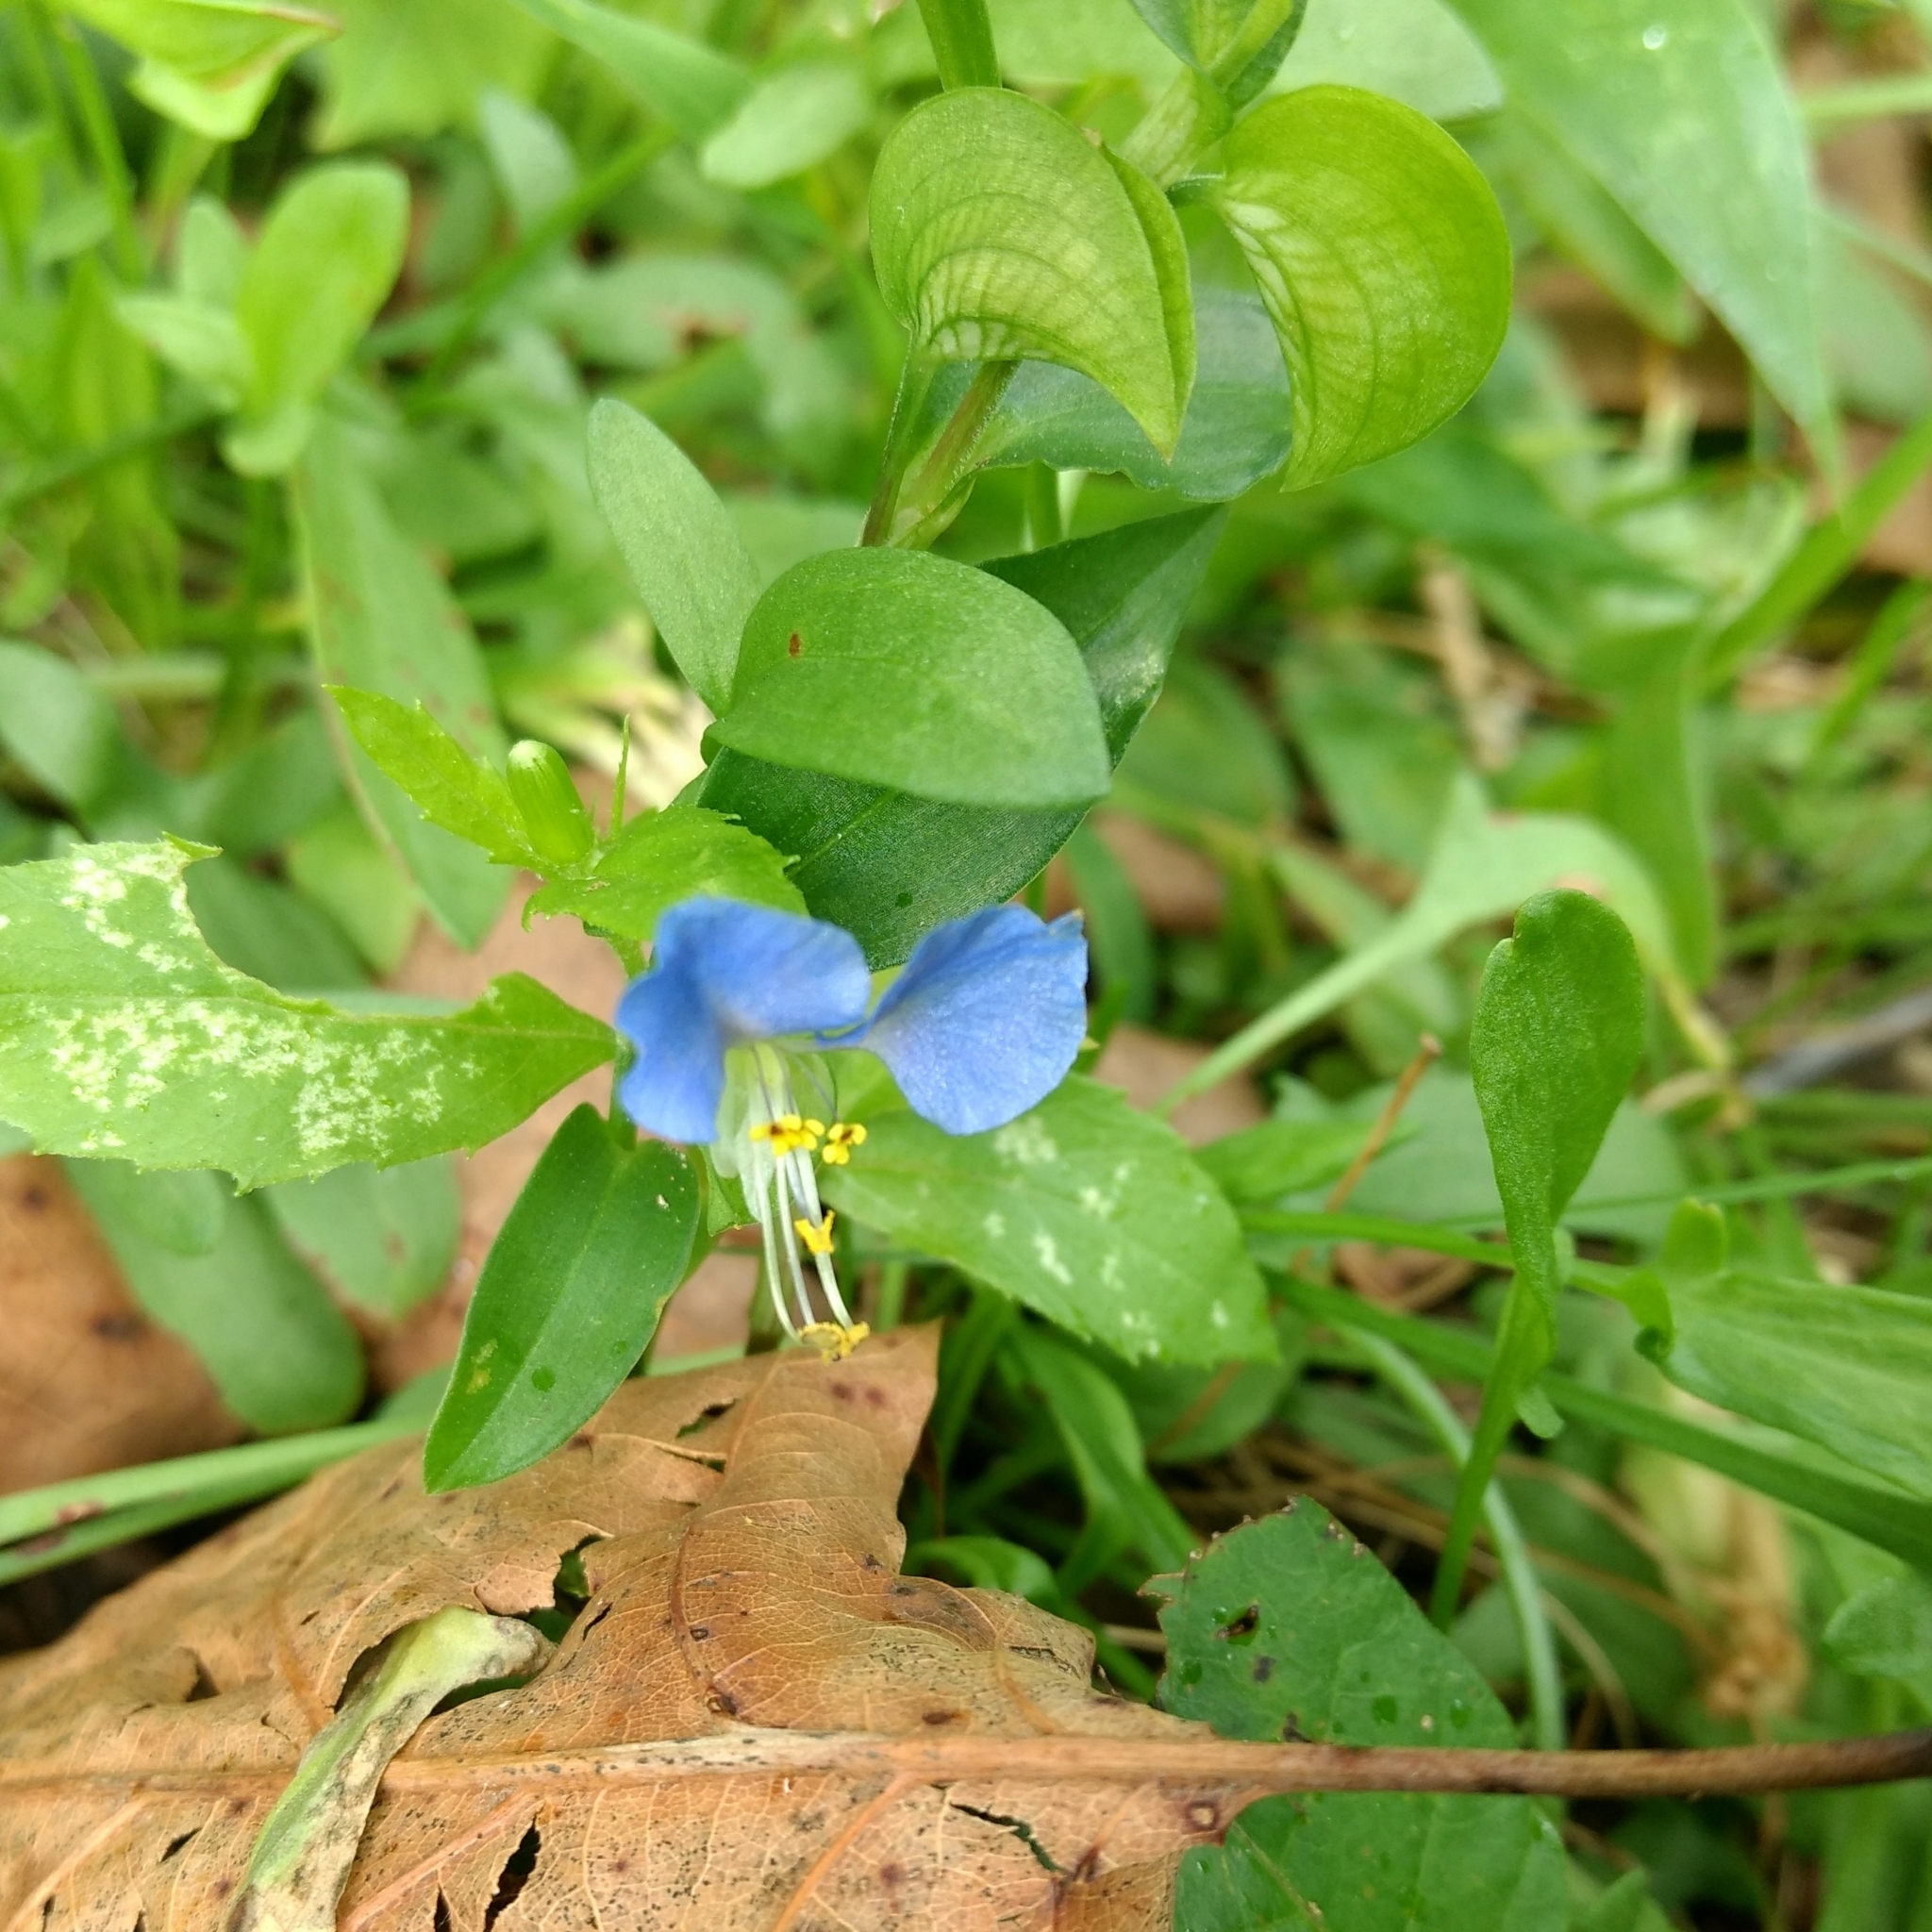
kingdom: Plantae
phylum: Tracheophyta
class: Liliopsida
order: Commelinales
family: Commelinaceae
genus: Commelina
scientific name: Commelina communis
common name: Asiatic dayflower
